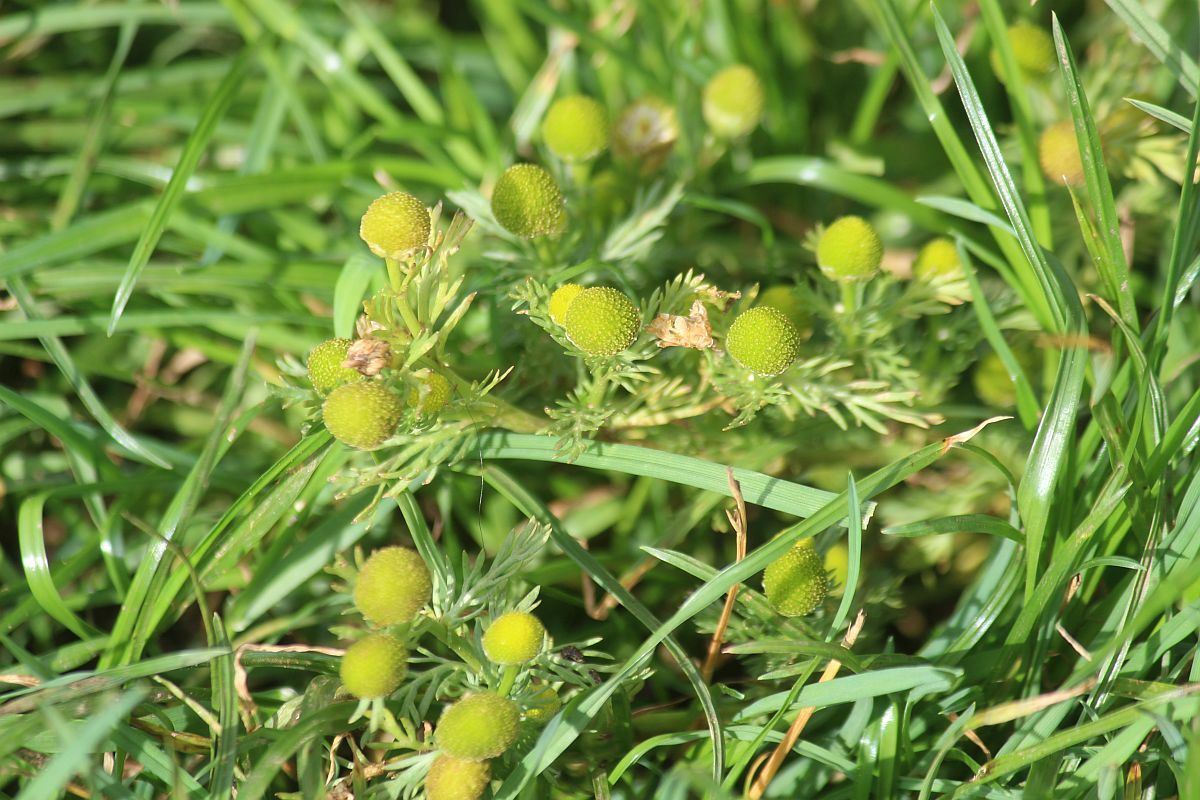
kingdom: Plantae
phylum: Tracheophyta
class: Magnoliopsida
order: Asterales
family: Asteraceae
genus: Matricaria
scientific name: Matricaria discoidea
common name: Disc mayweed
